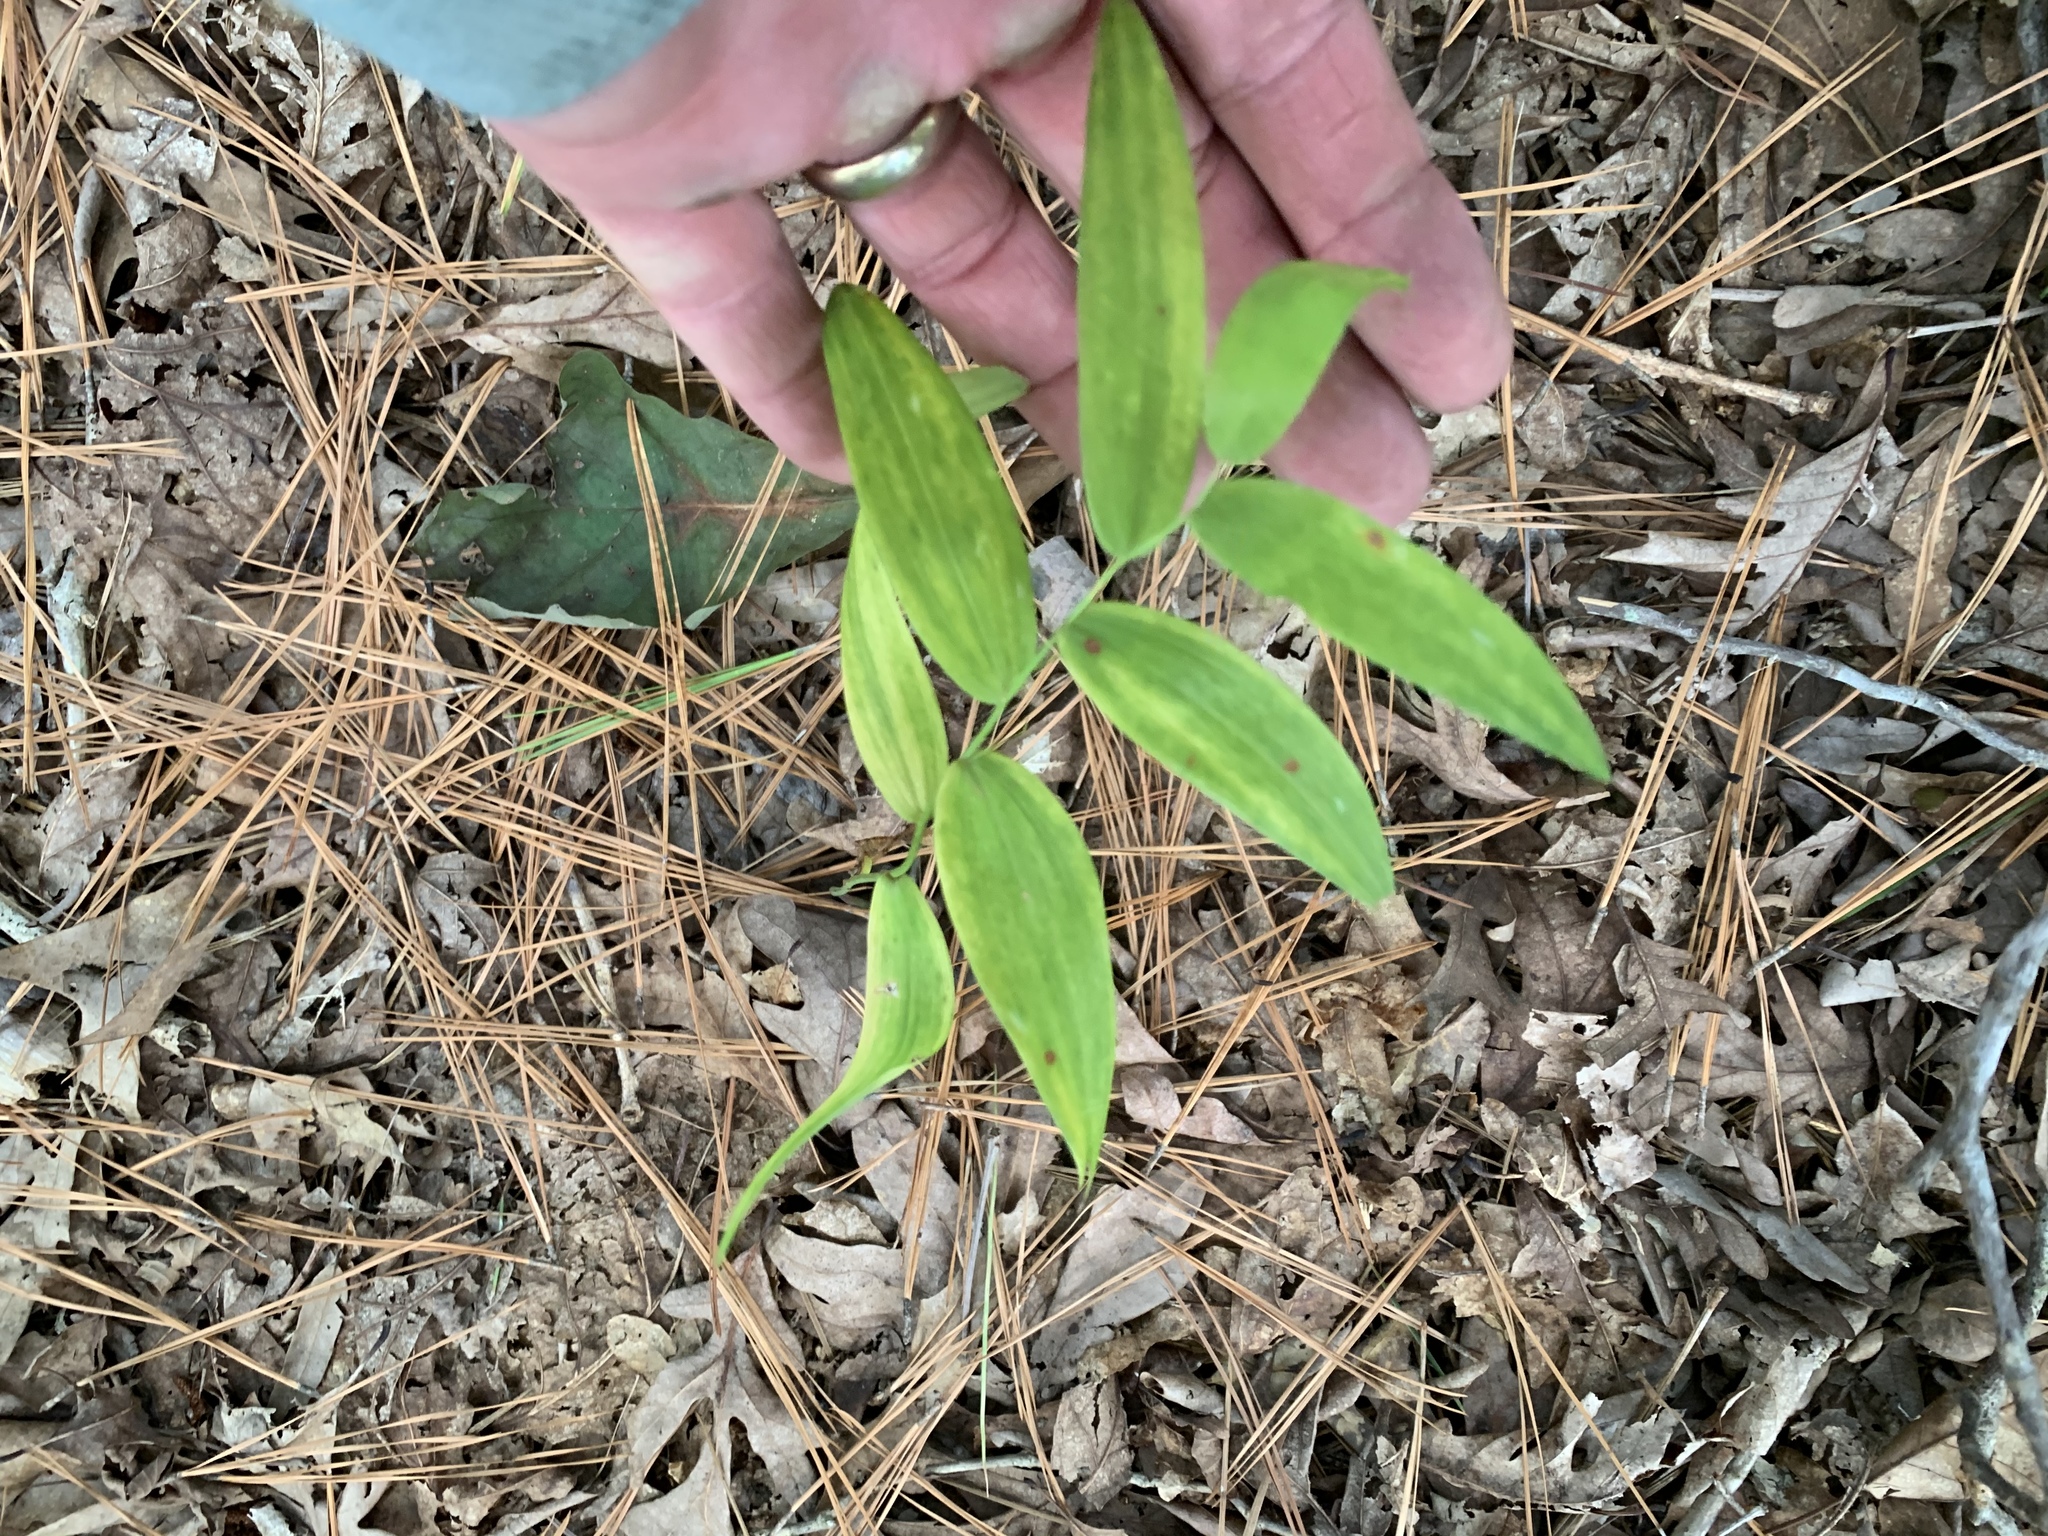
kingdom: Plantae
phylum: Tracheophyta
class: Liliopsida
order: Asparagales
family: Asparagaceae
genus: Polygonatum
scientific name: Polygonatum biflorum
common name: American solomon's-seal
